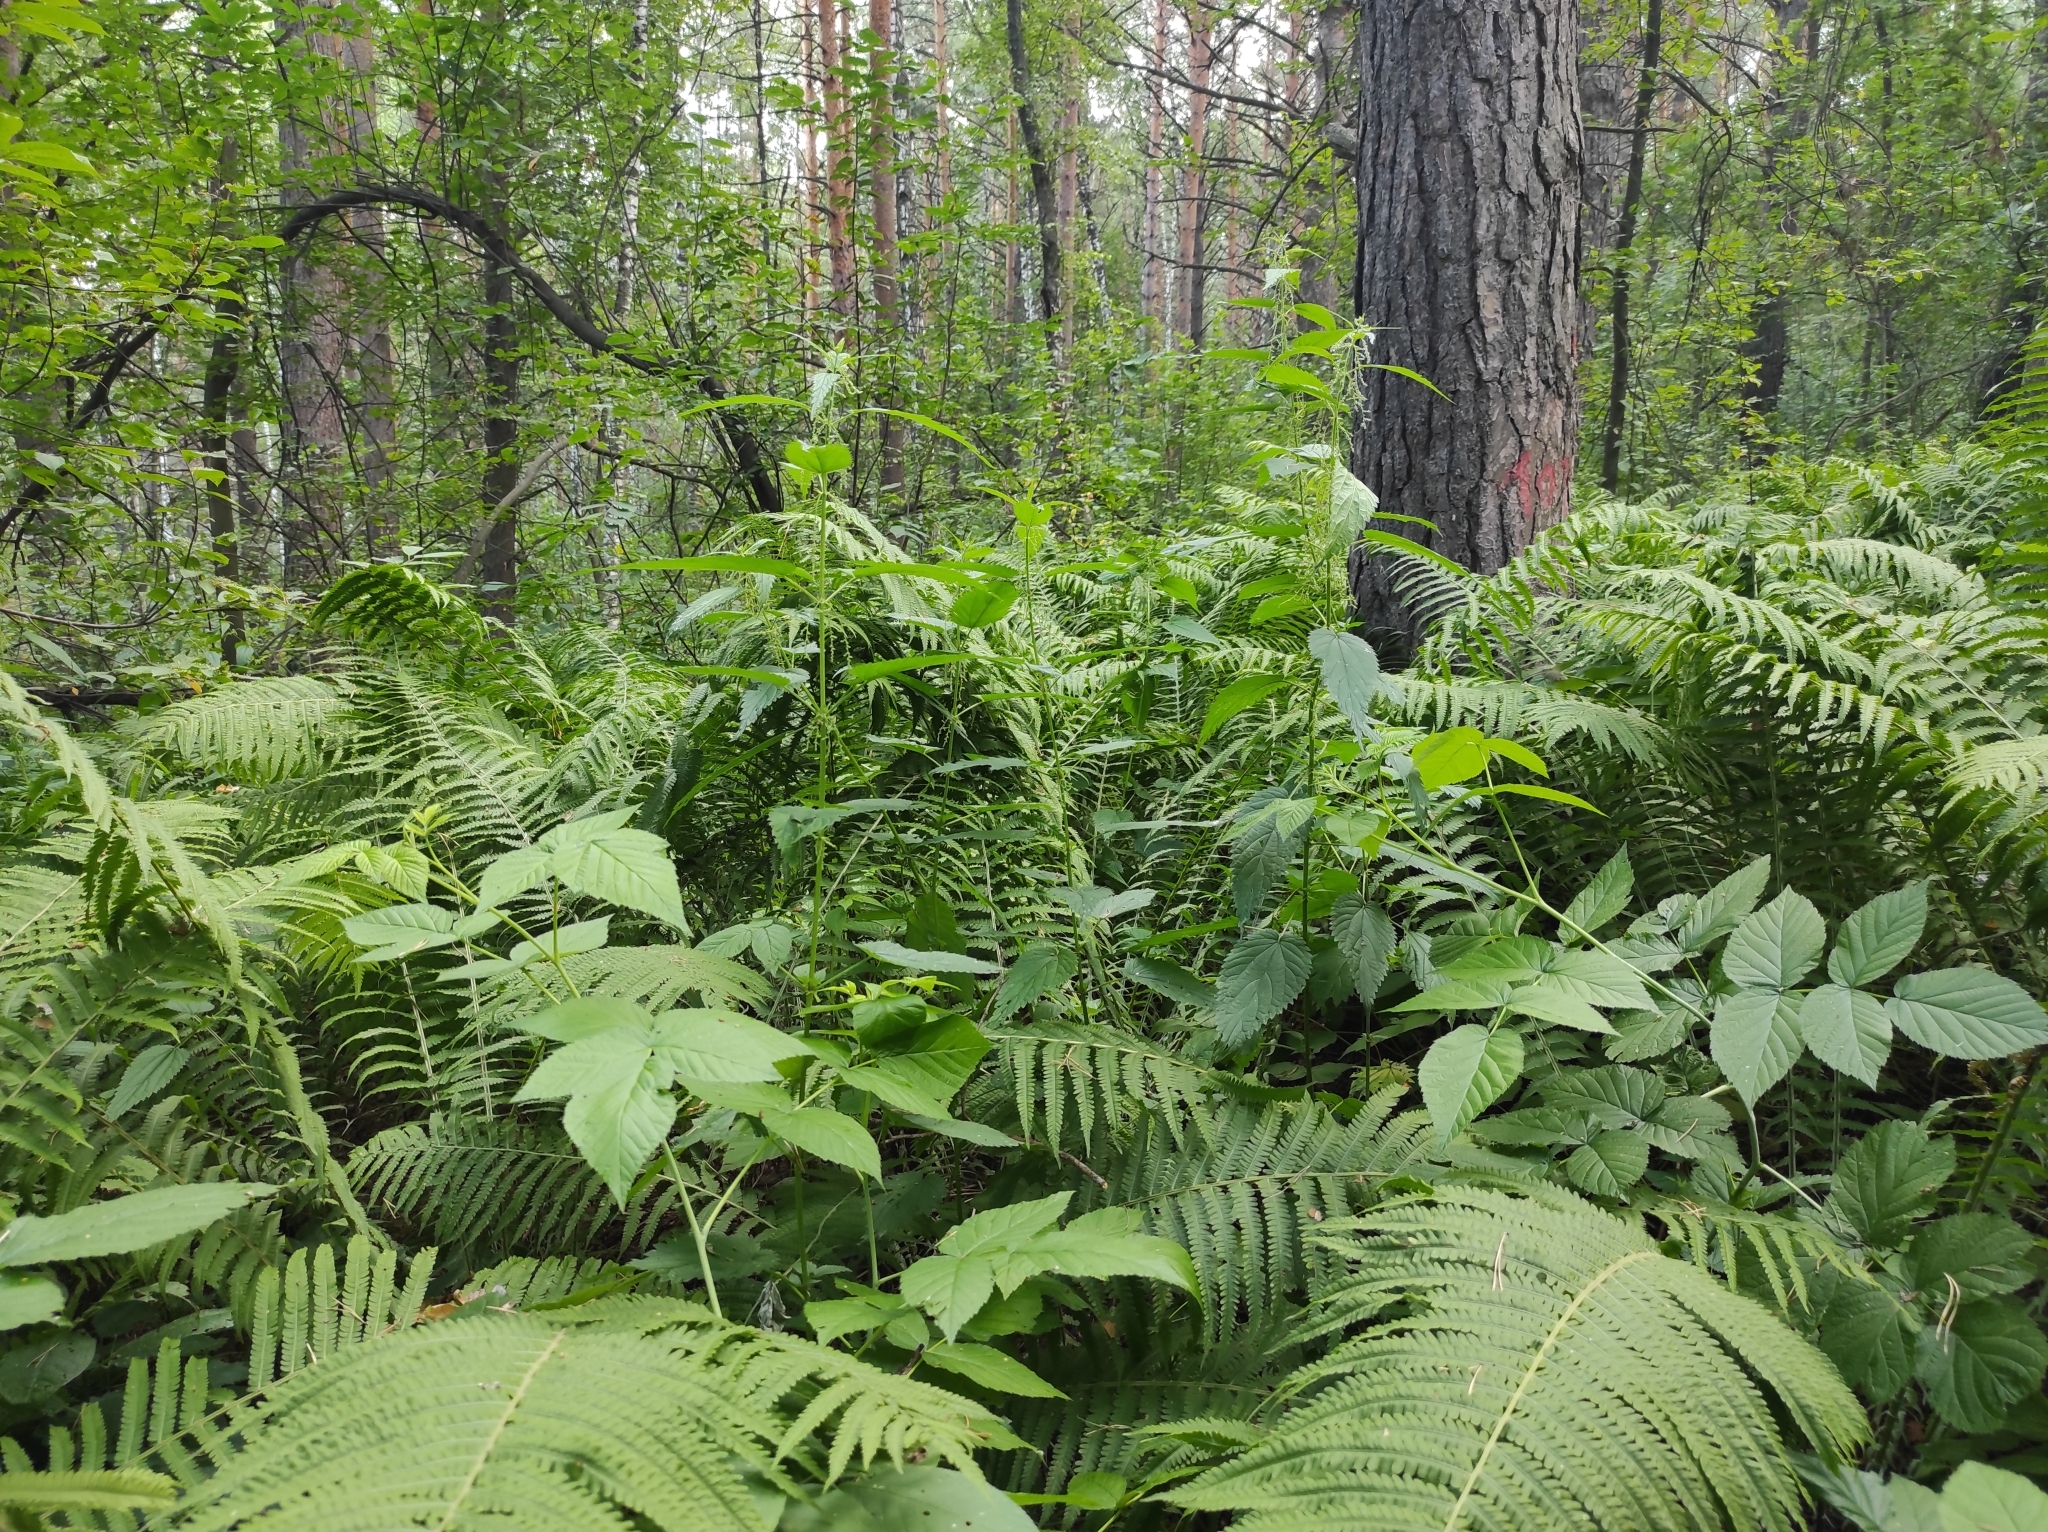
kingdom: Plantae
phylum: Tracheophyta
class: Pinopsida
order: Pinales
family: Pinaceae
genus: Pinus
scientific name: Pinus sylvestris
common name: Scots pine
